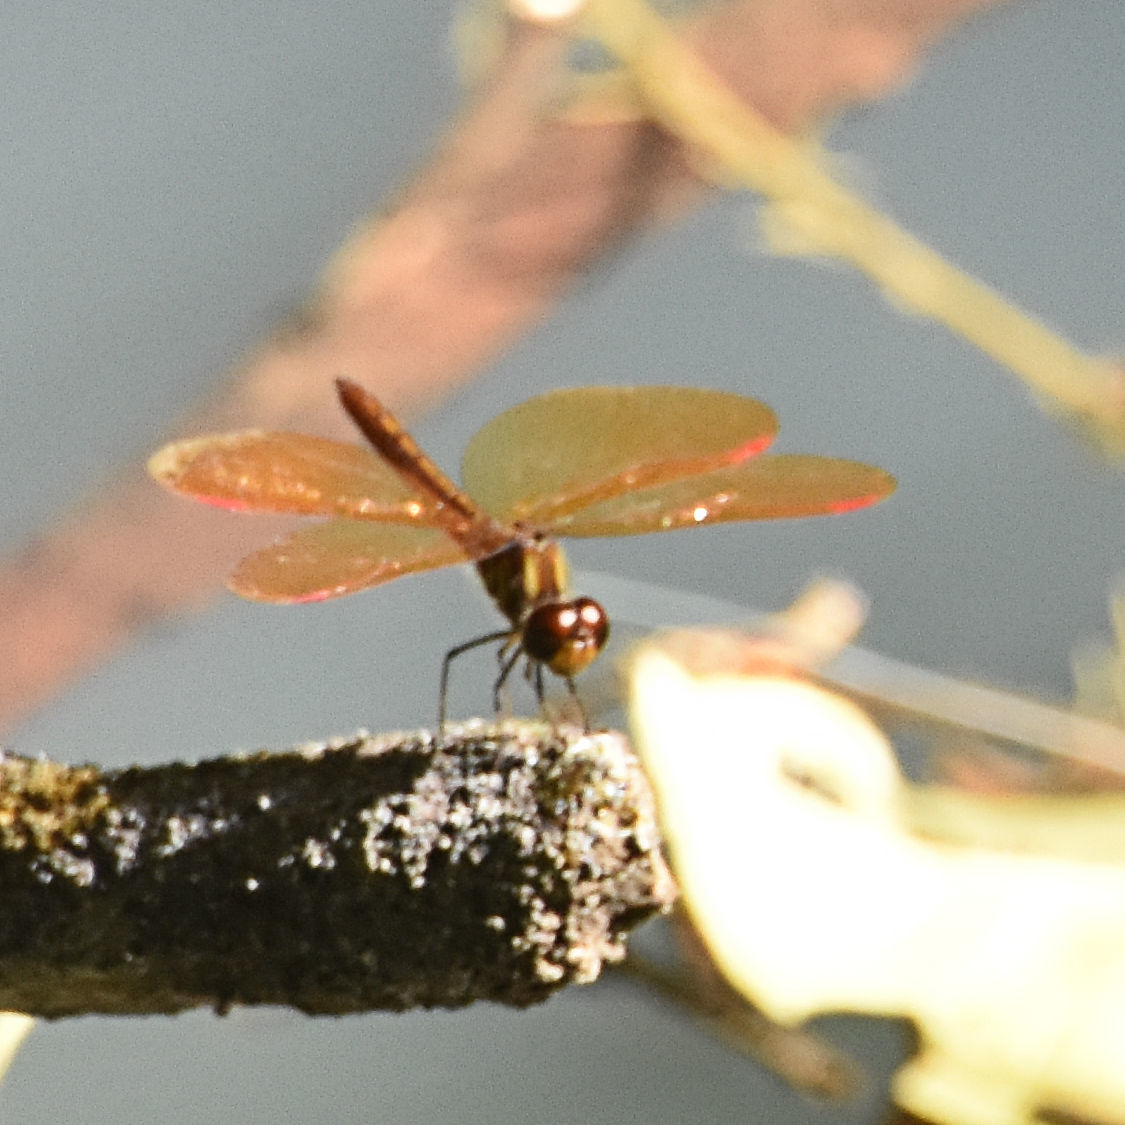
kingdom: Animalia
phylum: Arthropoda
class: Insecta
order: Odonata
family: Libellulidae
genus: Perithemis
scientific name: Perithemis domitia
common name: Slough amberwing
